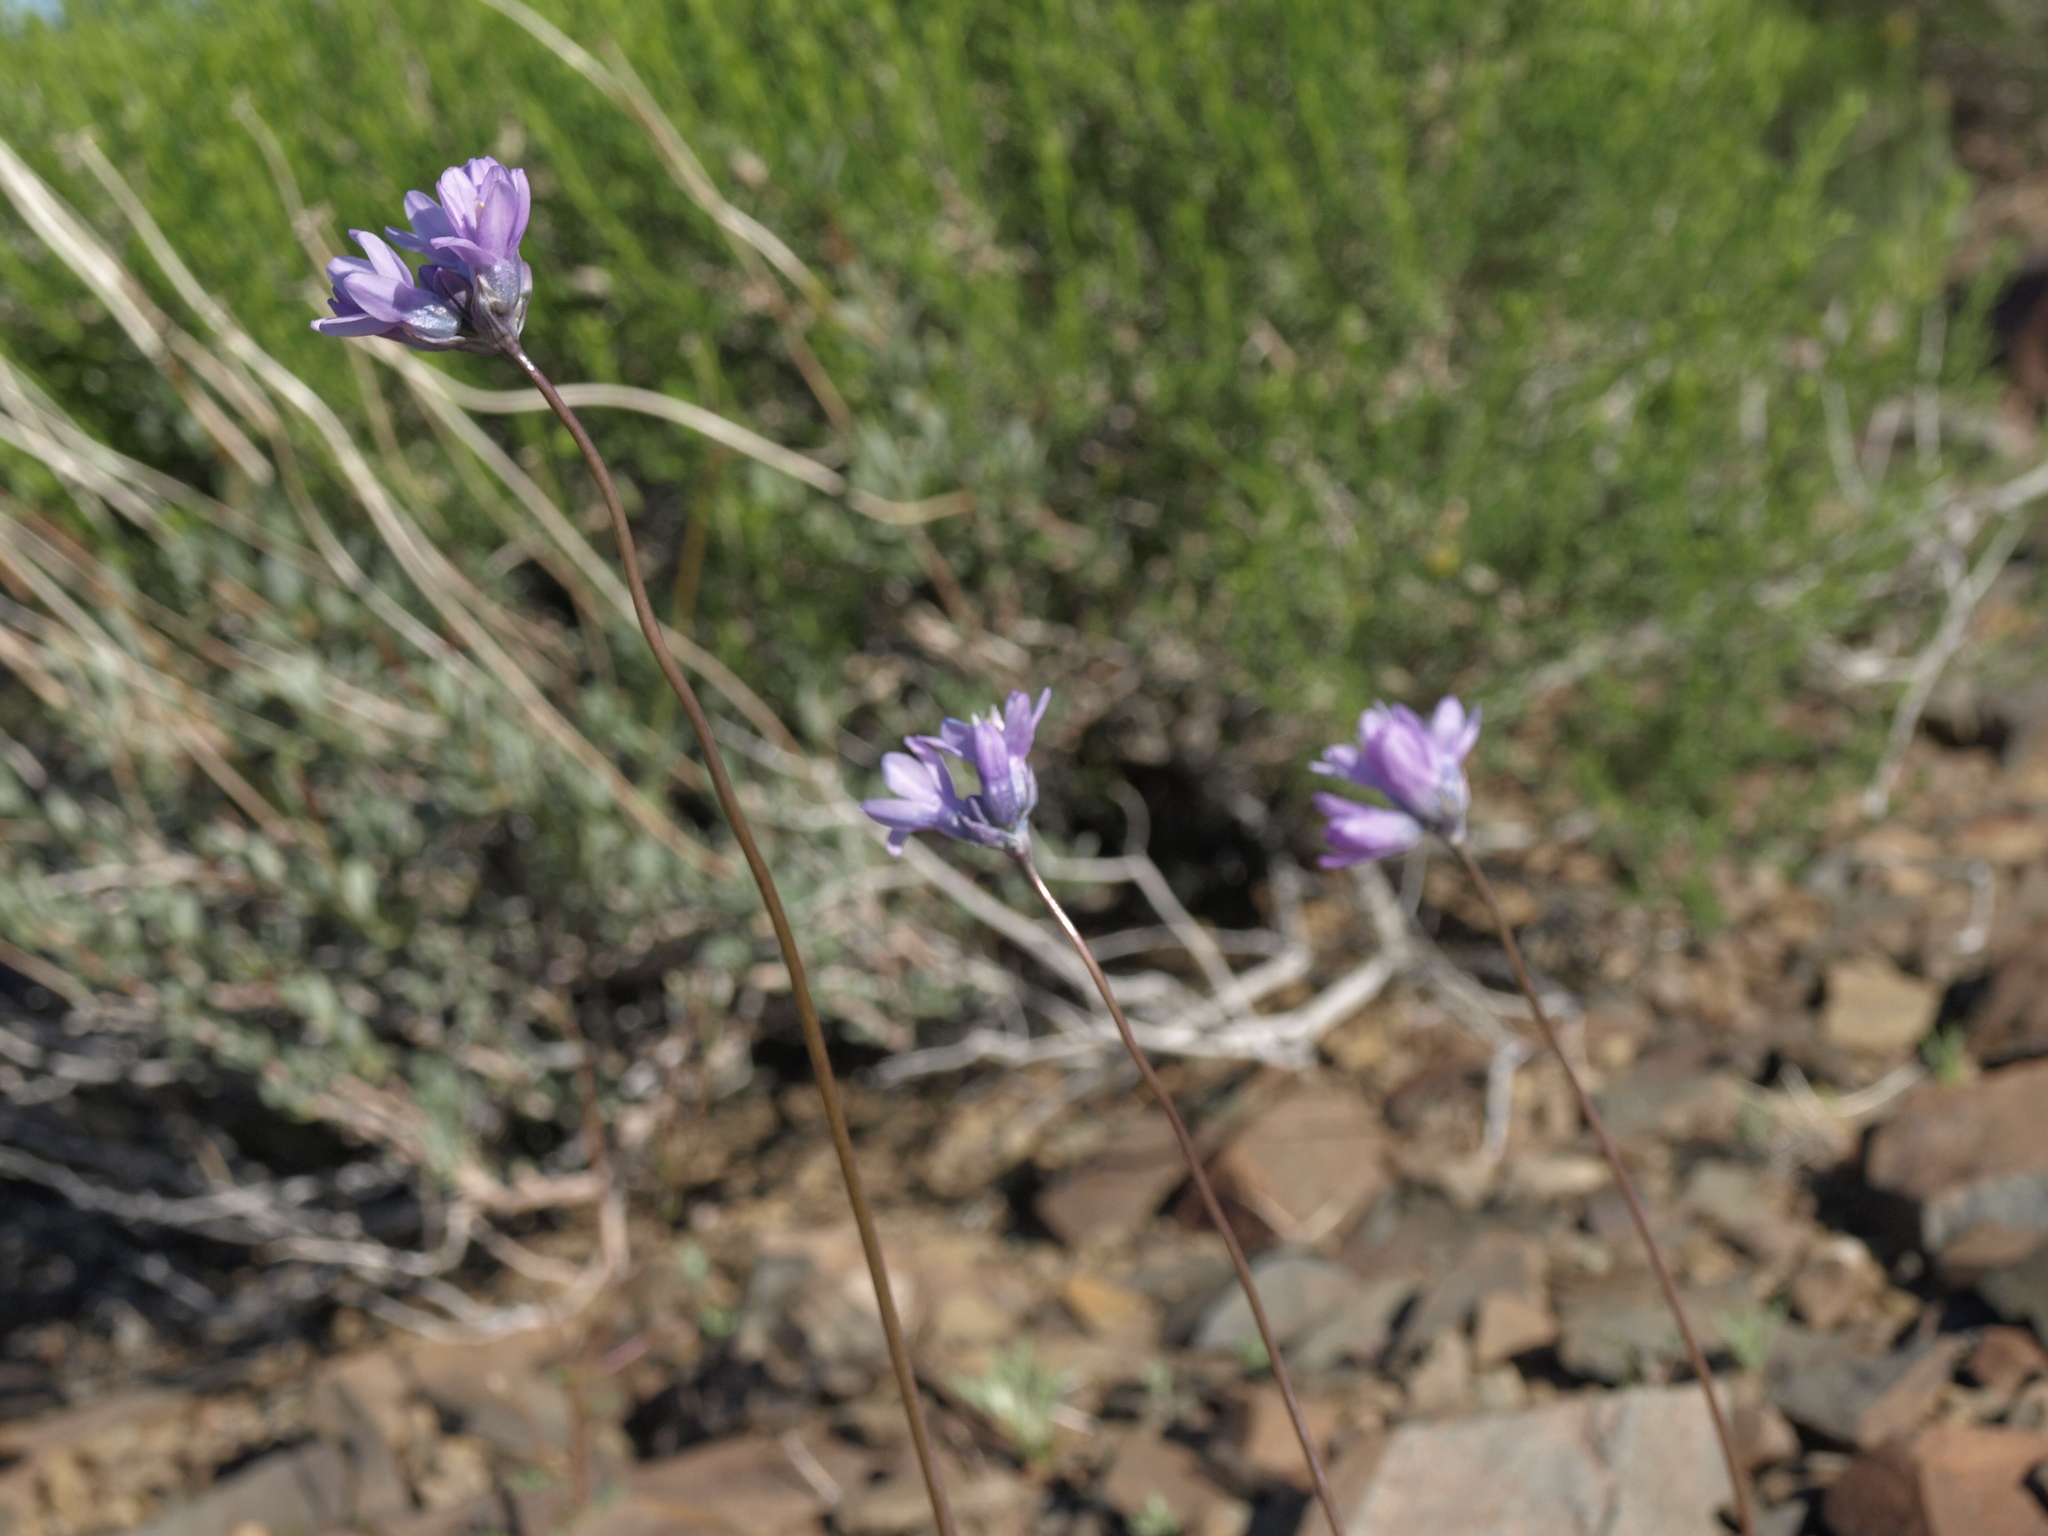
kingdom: Plantae
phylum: Tracheophyta
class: Liliopsida
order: Asparagales
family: Asparagaceae
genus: Dipterostemon
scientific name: Dipterostemon capitatus
